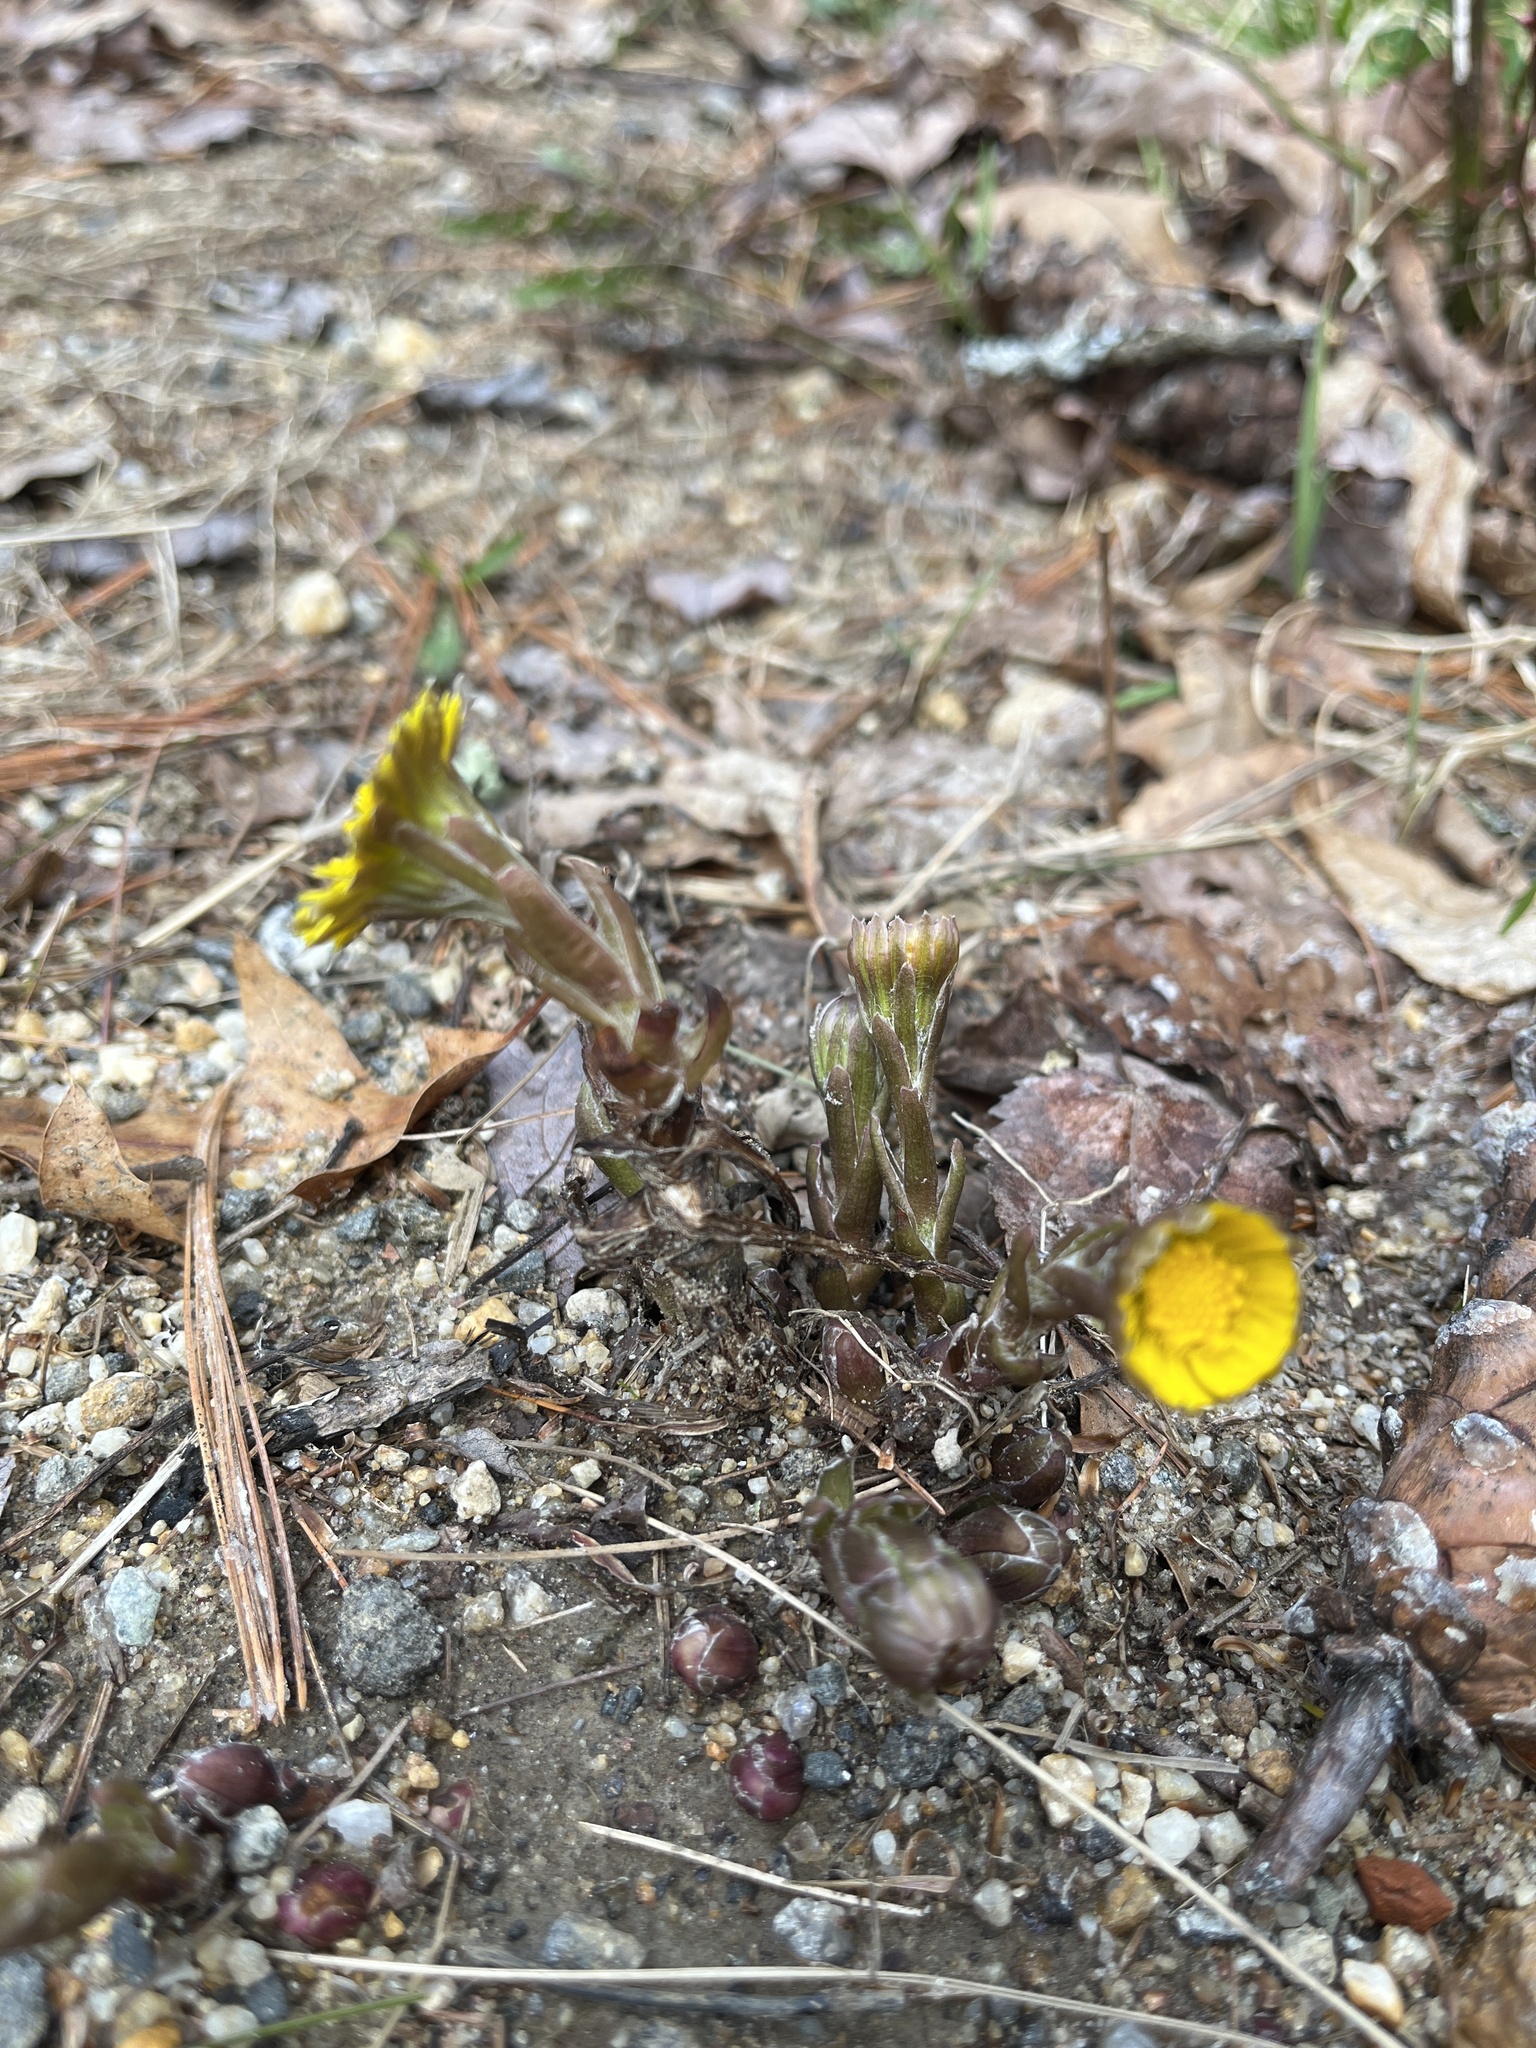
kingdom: Plantae
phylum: Tracheophyta
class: Magnoliopsida
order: Asterales
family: Asteraceae
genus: Tussilago
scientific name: Tussilago farfara
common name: Coltsfoot
